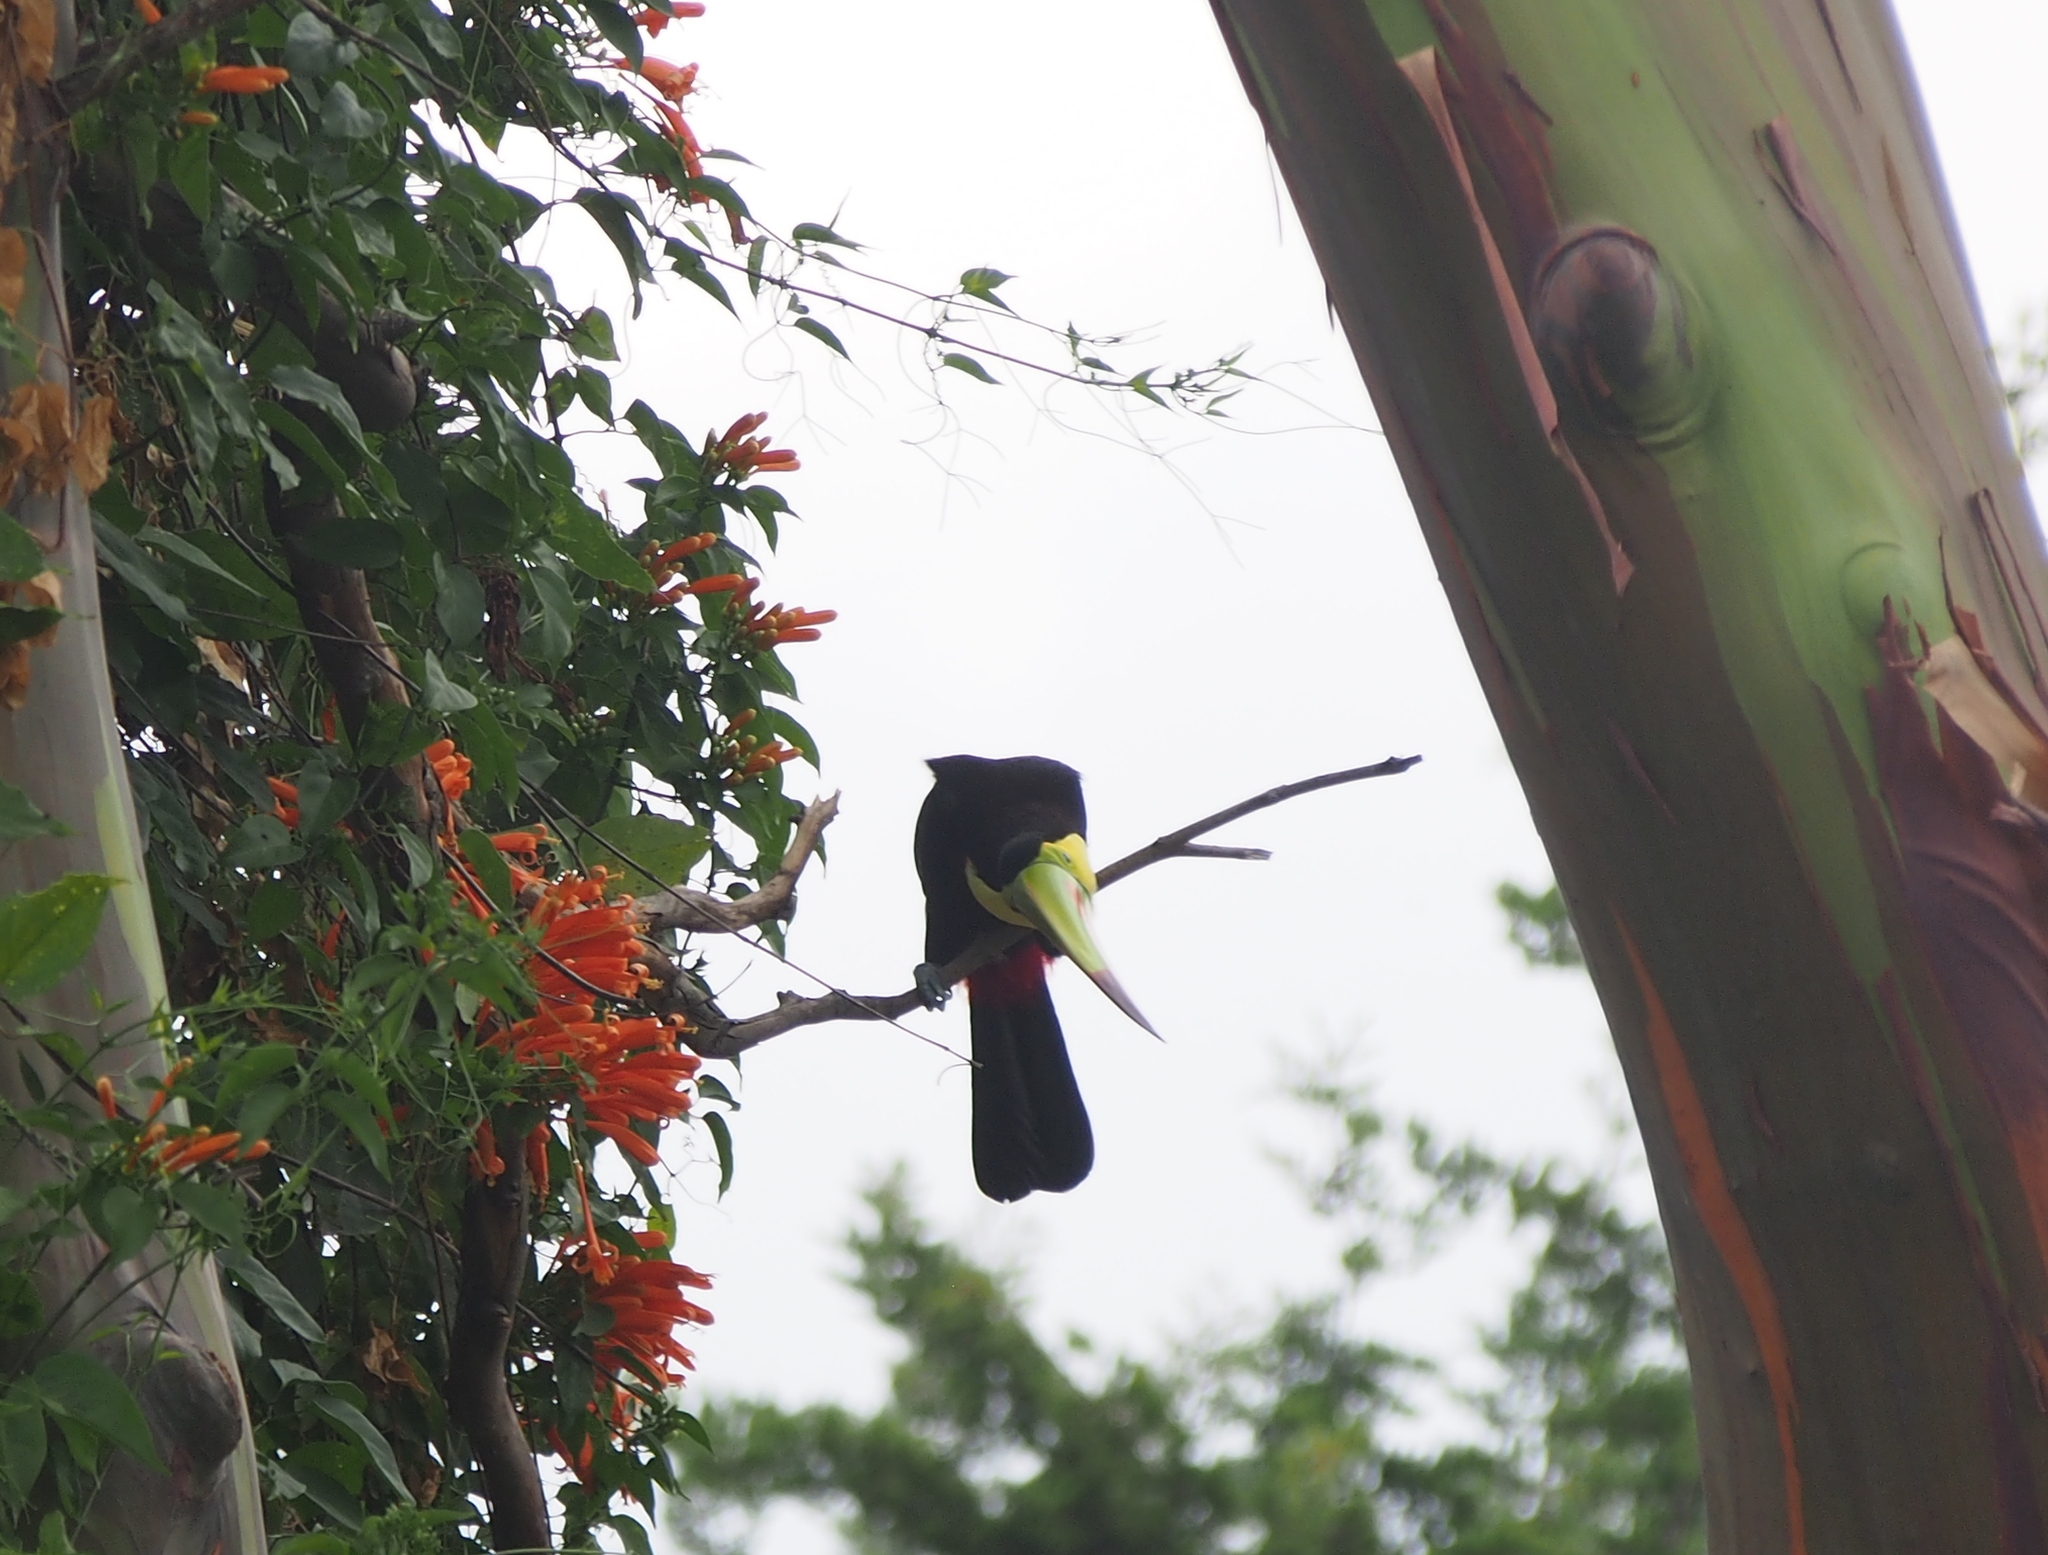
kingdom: Animalia
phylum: Chordata
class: Aves
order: Piciformes
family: Ramphastidae
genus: Ramphastos
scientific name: Ramphastos sulfuratus
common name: Keel-billed toucan
